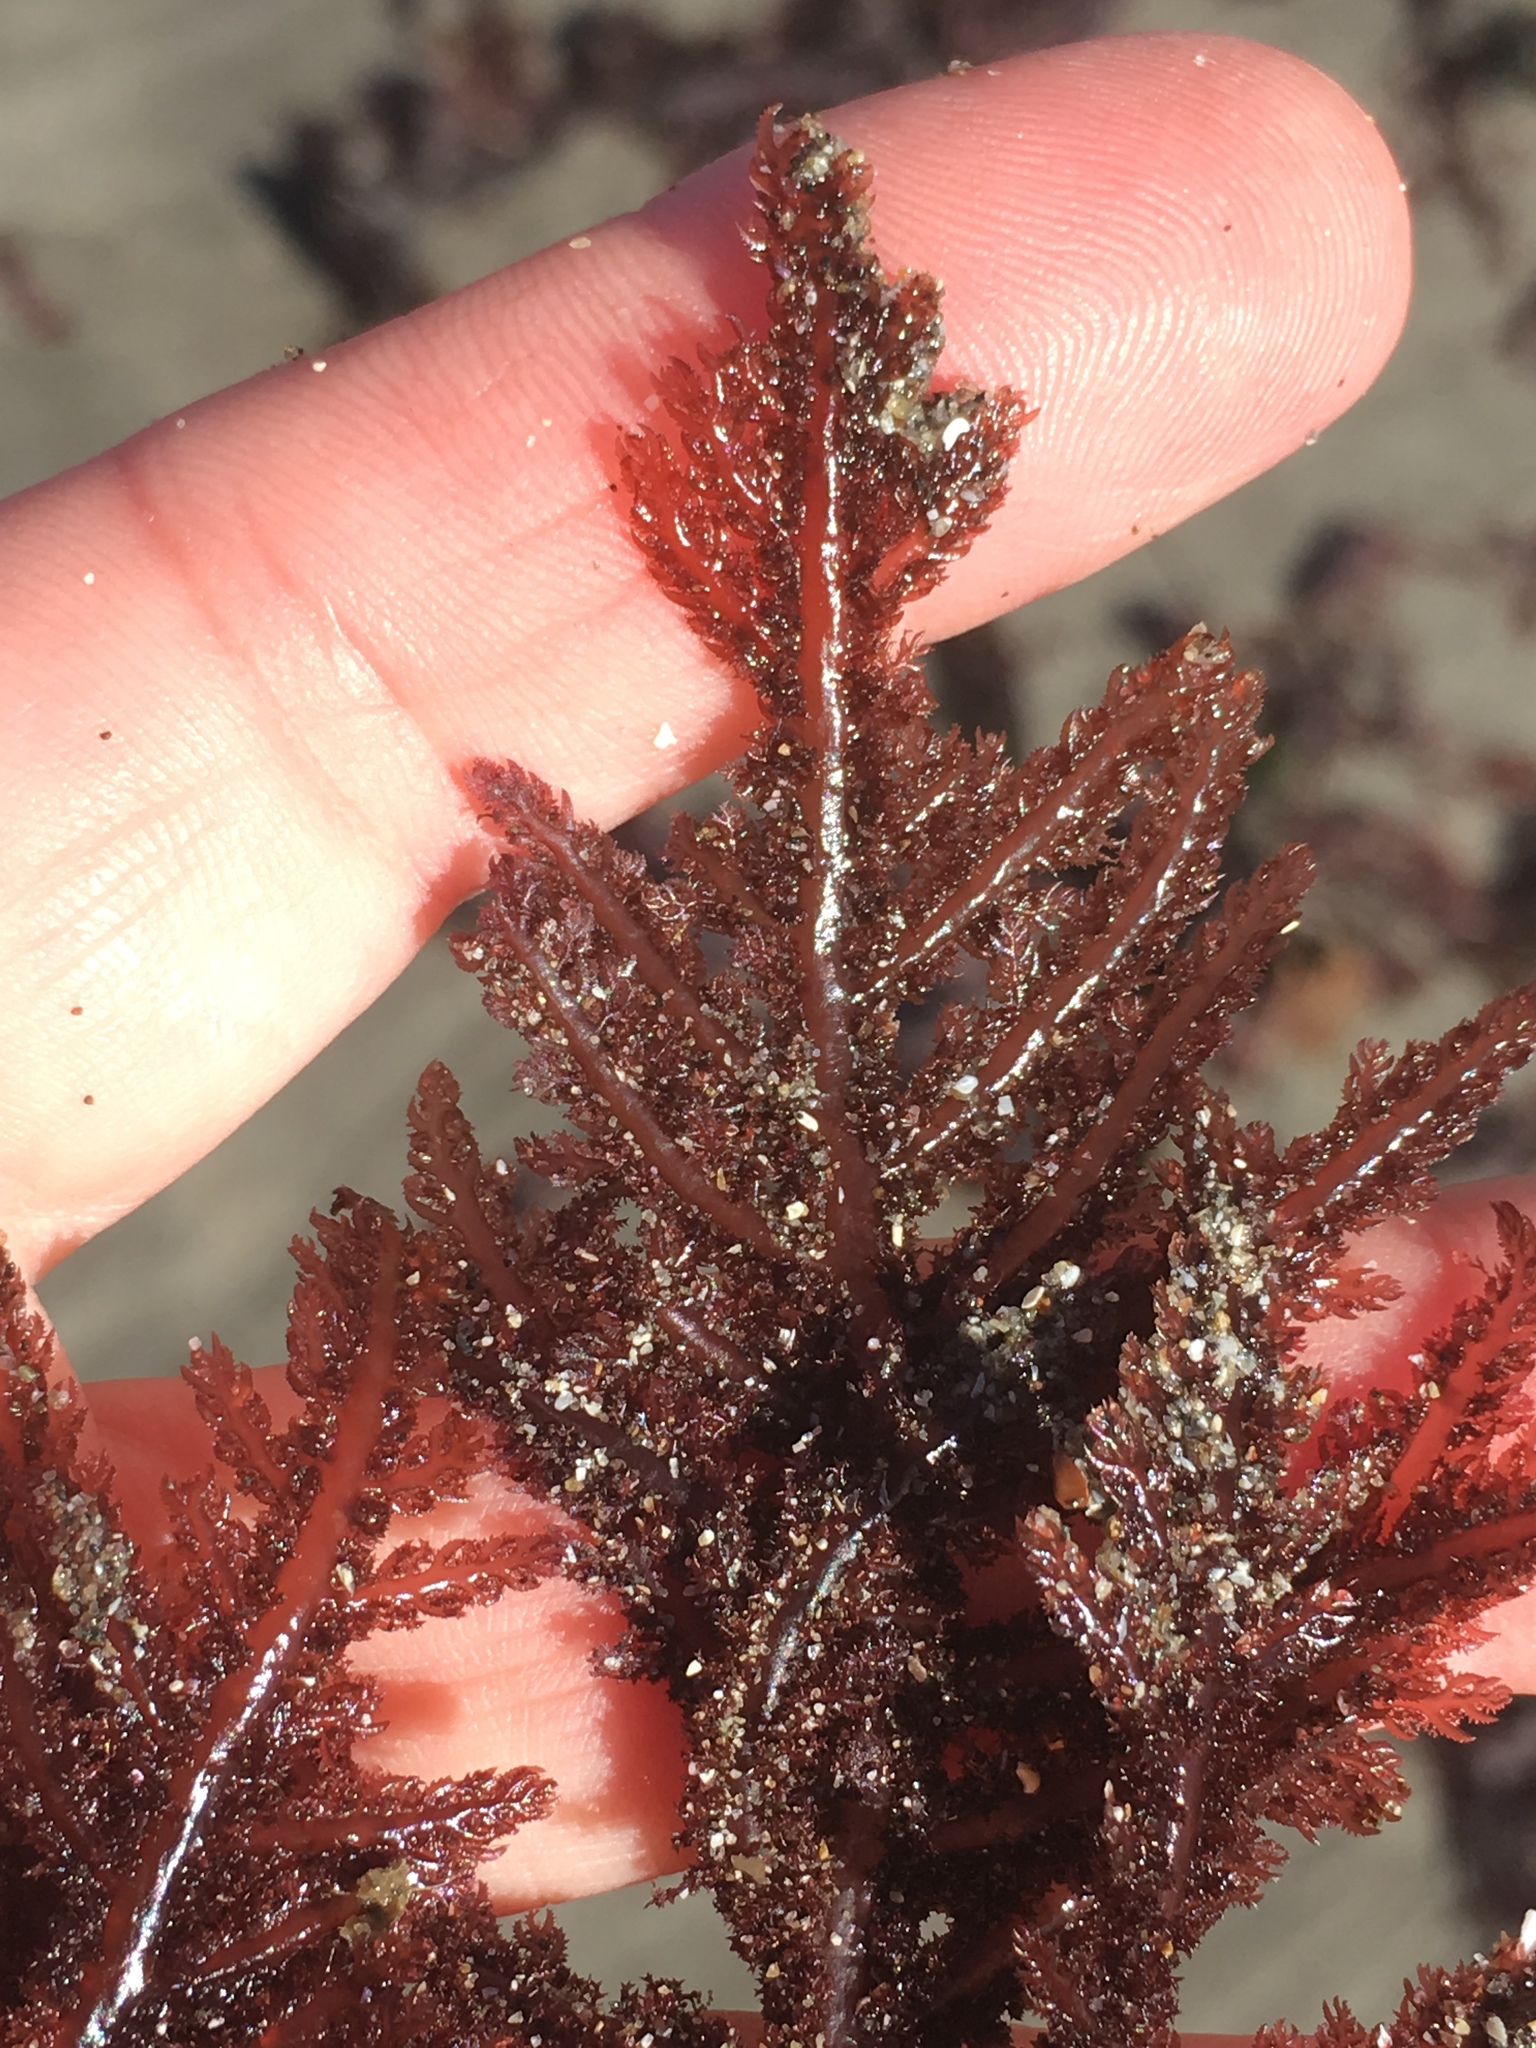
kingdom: Plantae
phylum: Rhodophyta
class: Florideophyceae
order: Ceramiales
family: Wrangeliaceae
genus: Neoptilota
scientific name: Neoptilota densa
